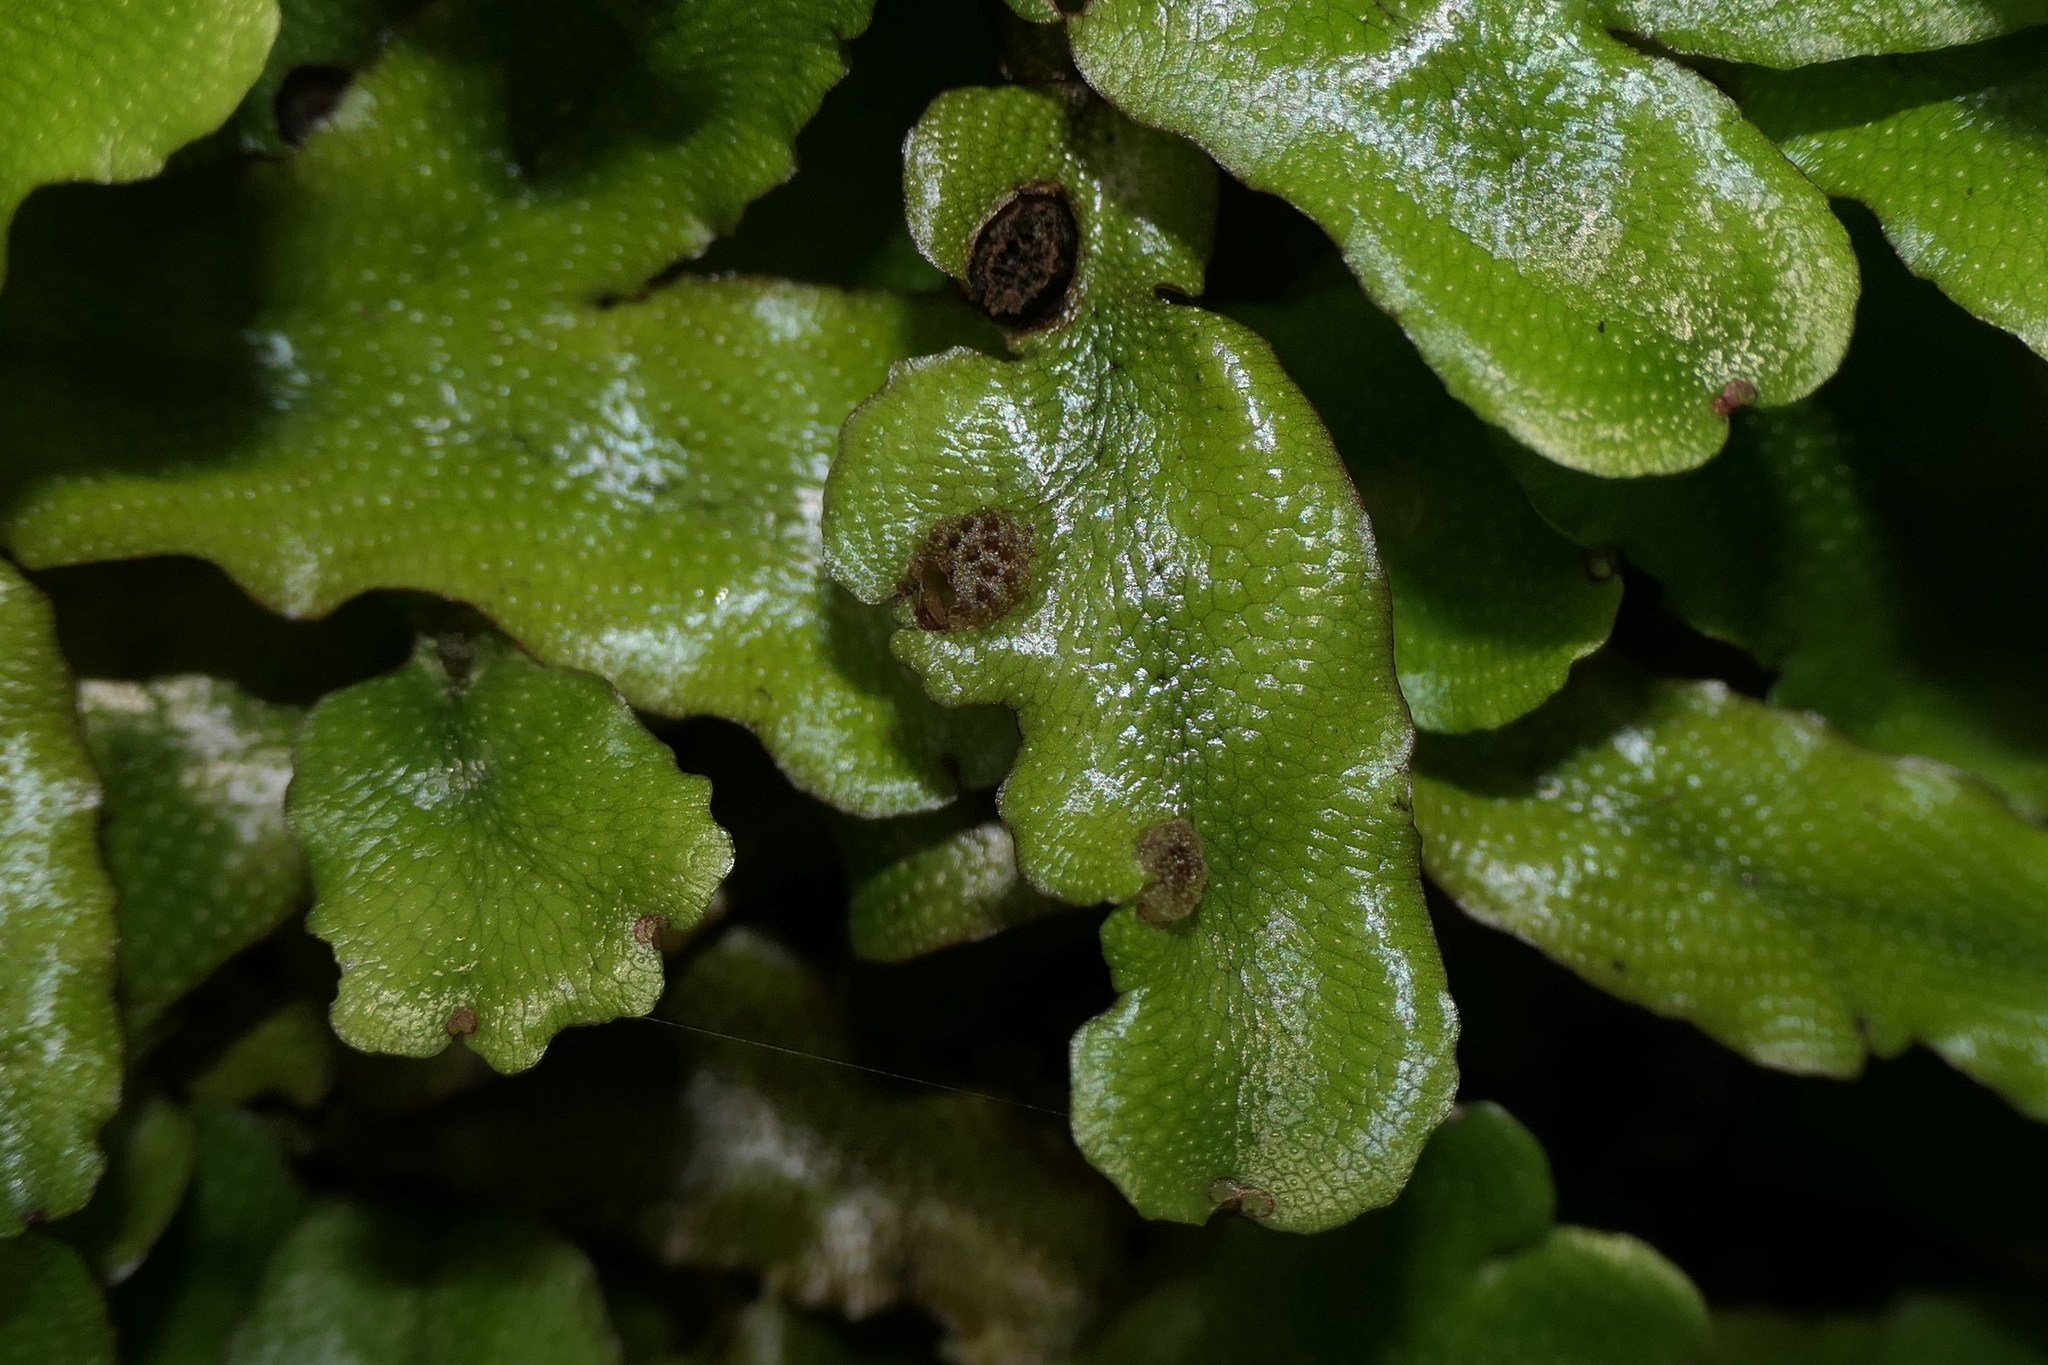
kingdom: Plantae
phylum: Marchantiophyta
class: Marchantiopsida
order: Marchantiales
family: Conocephalaceae
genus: Conocephalum
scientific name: Conocephalum conicum
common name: Great scented liverwort
